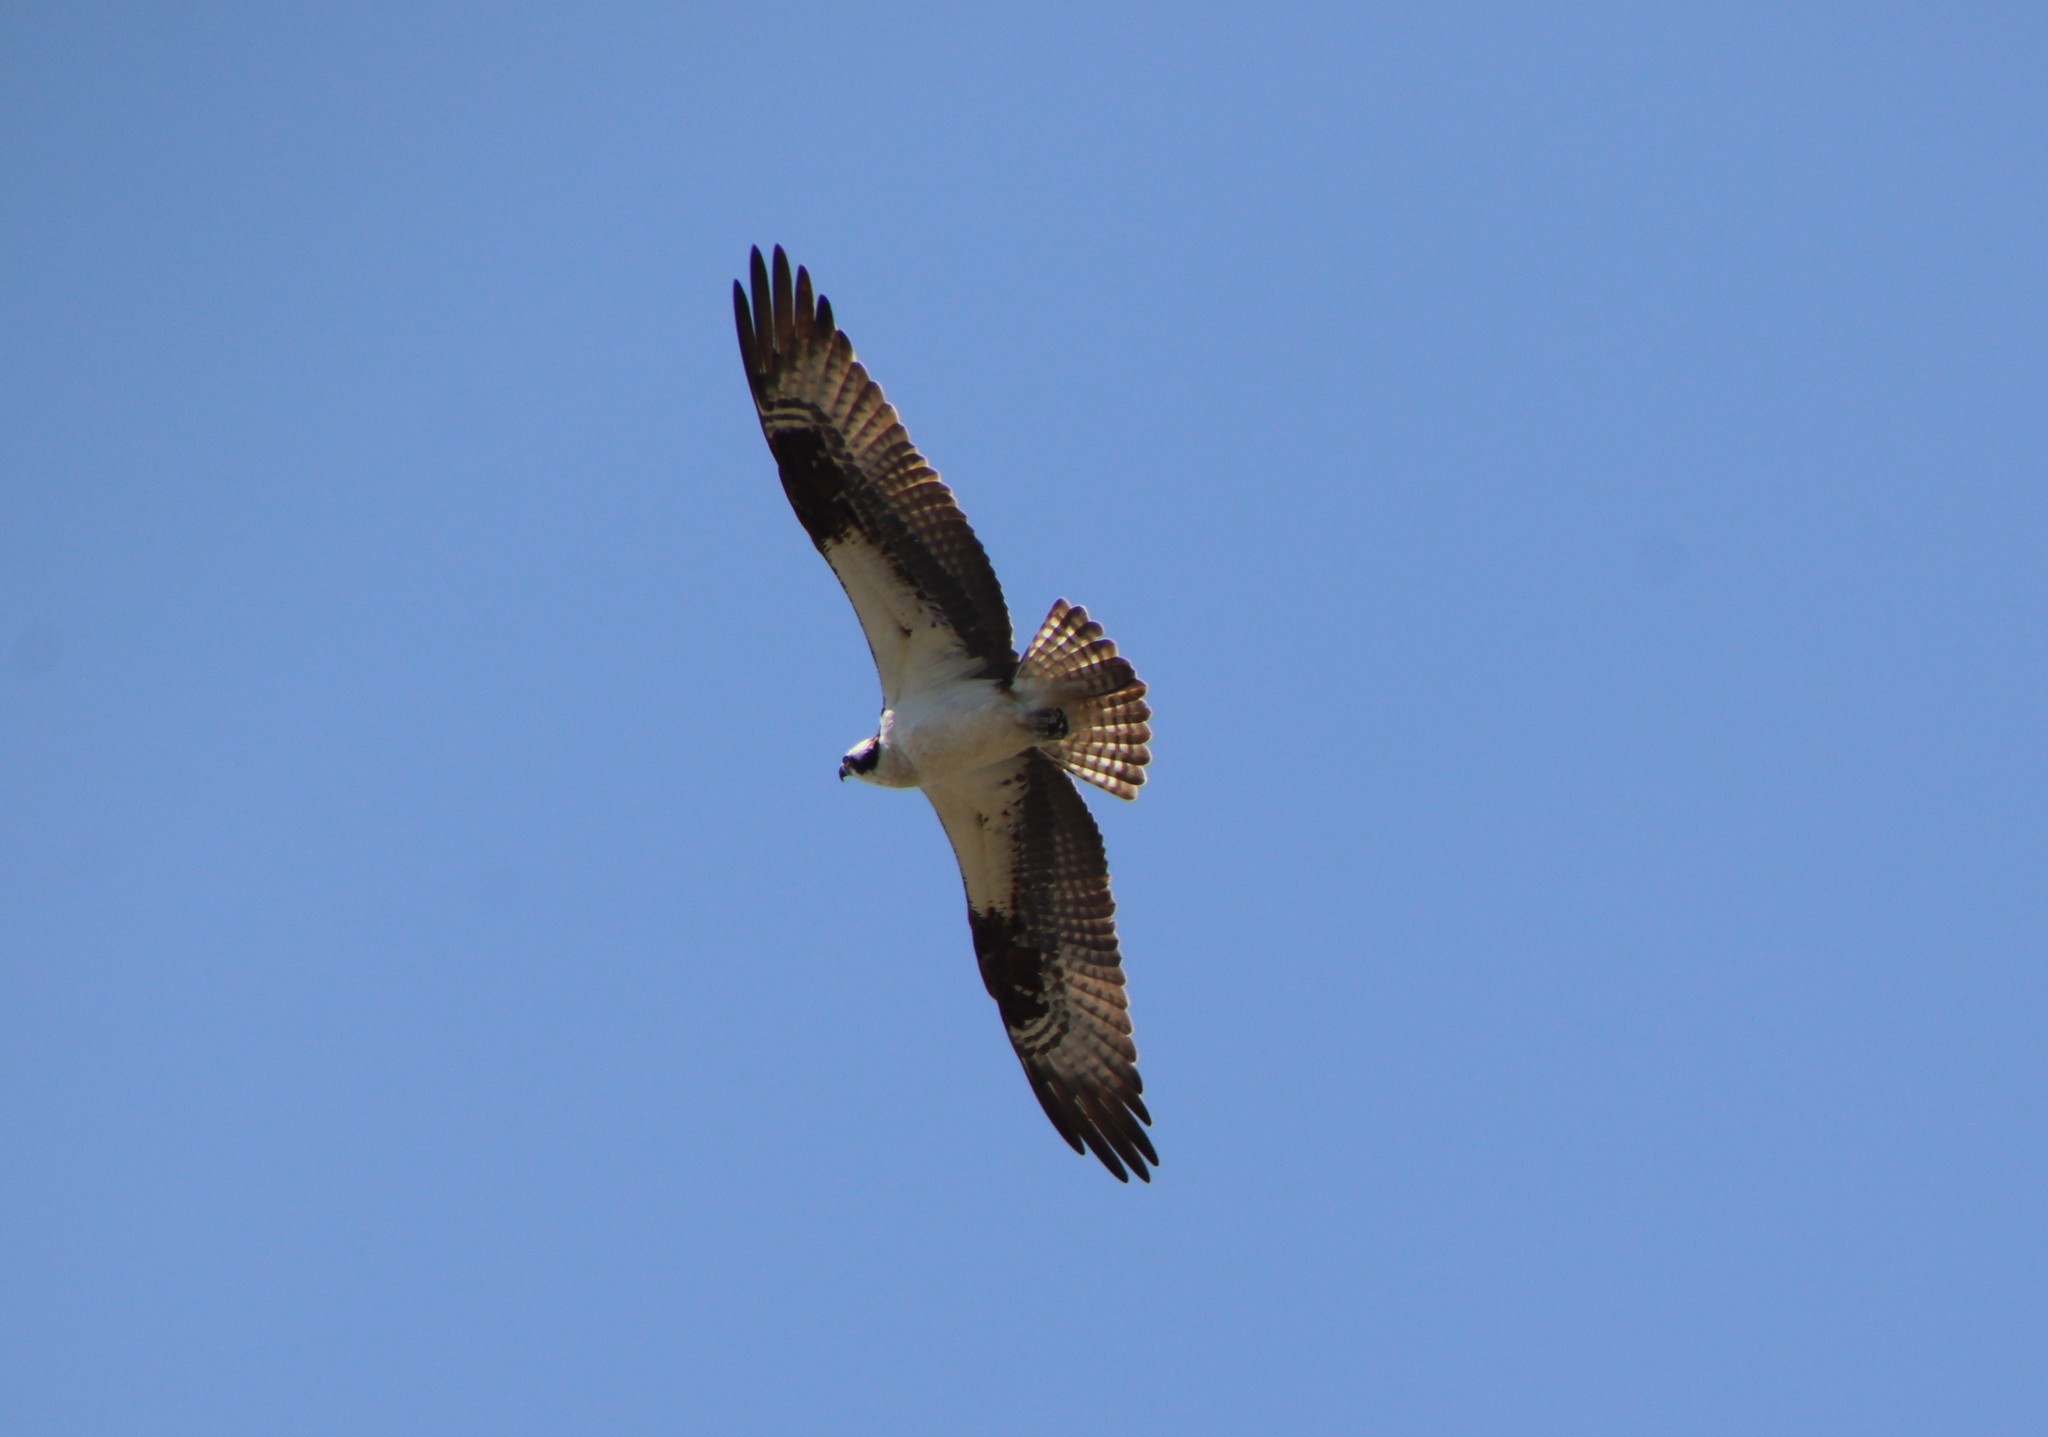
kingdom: Animalia
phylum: Chordata
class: Aves
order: Accipitriformes
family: Pandionidae
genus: Pandion
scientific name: Pandion haliaetus
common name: Osprey
